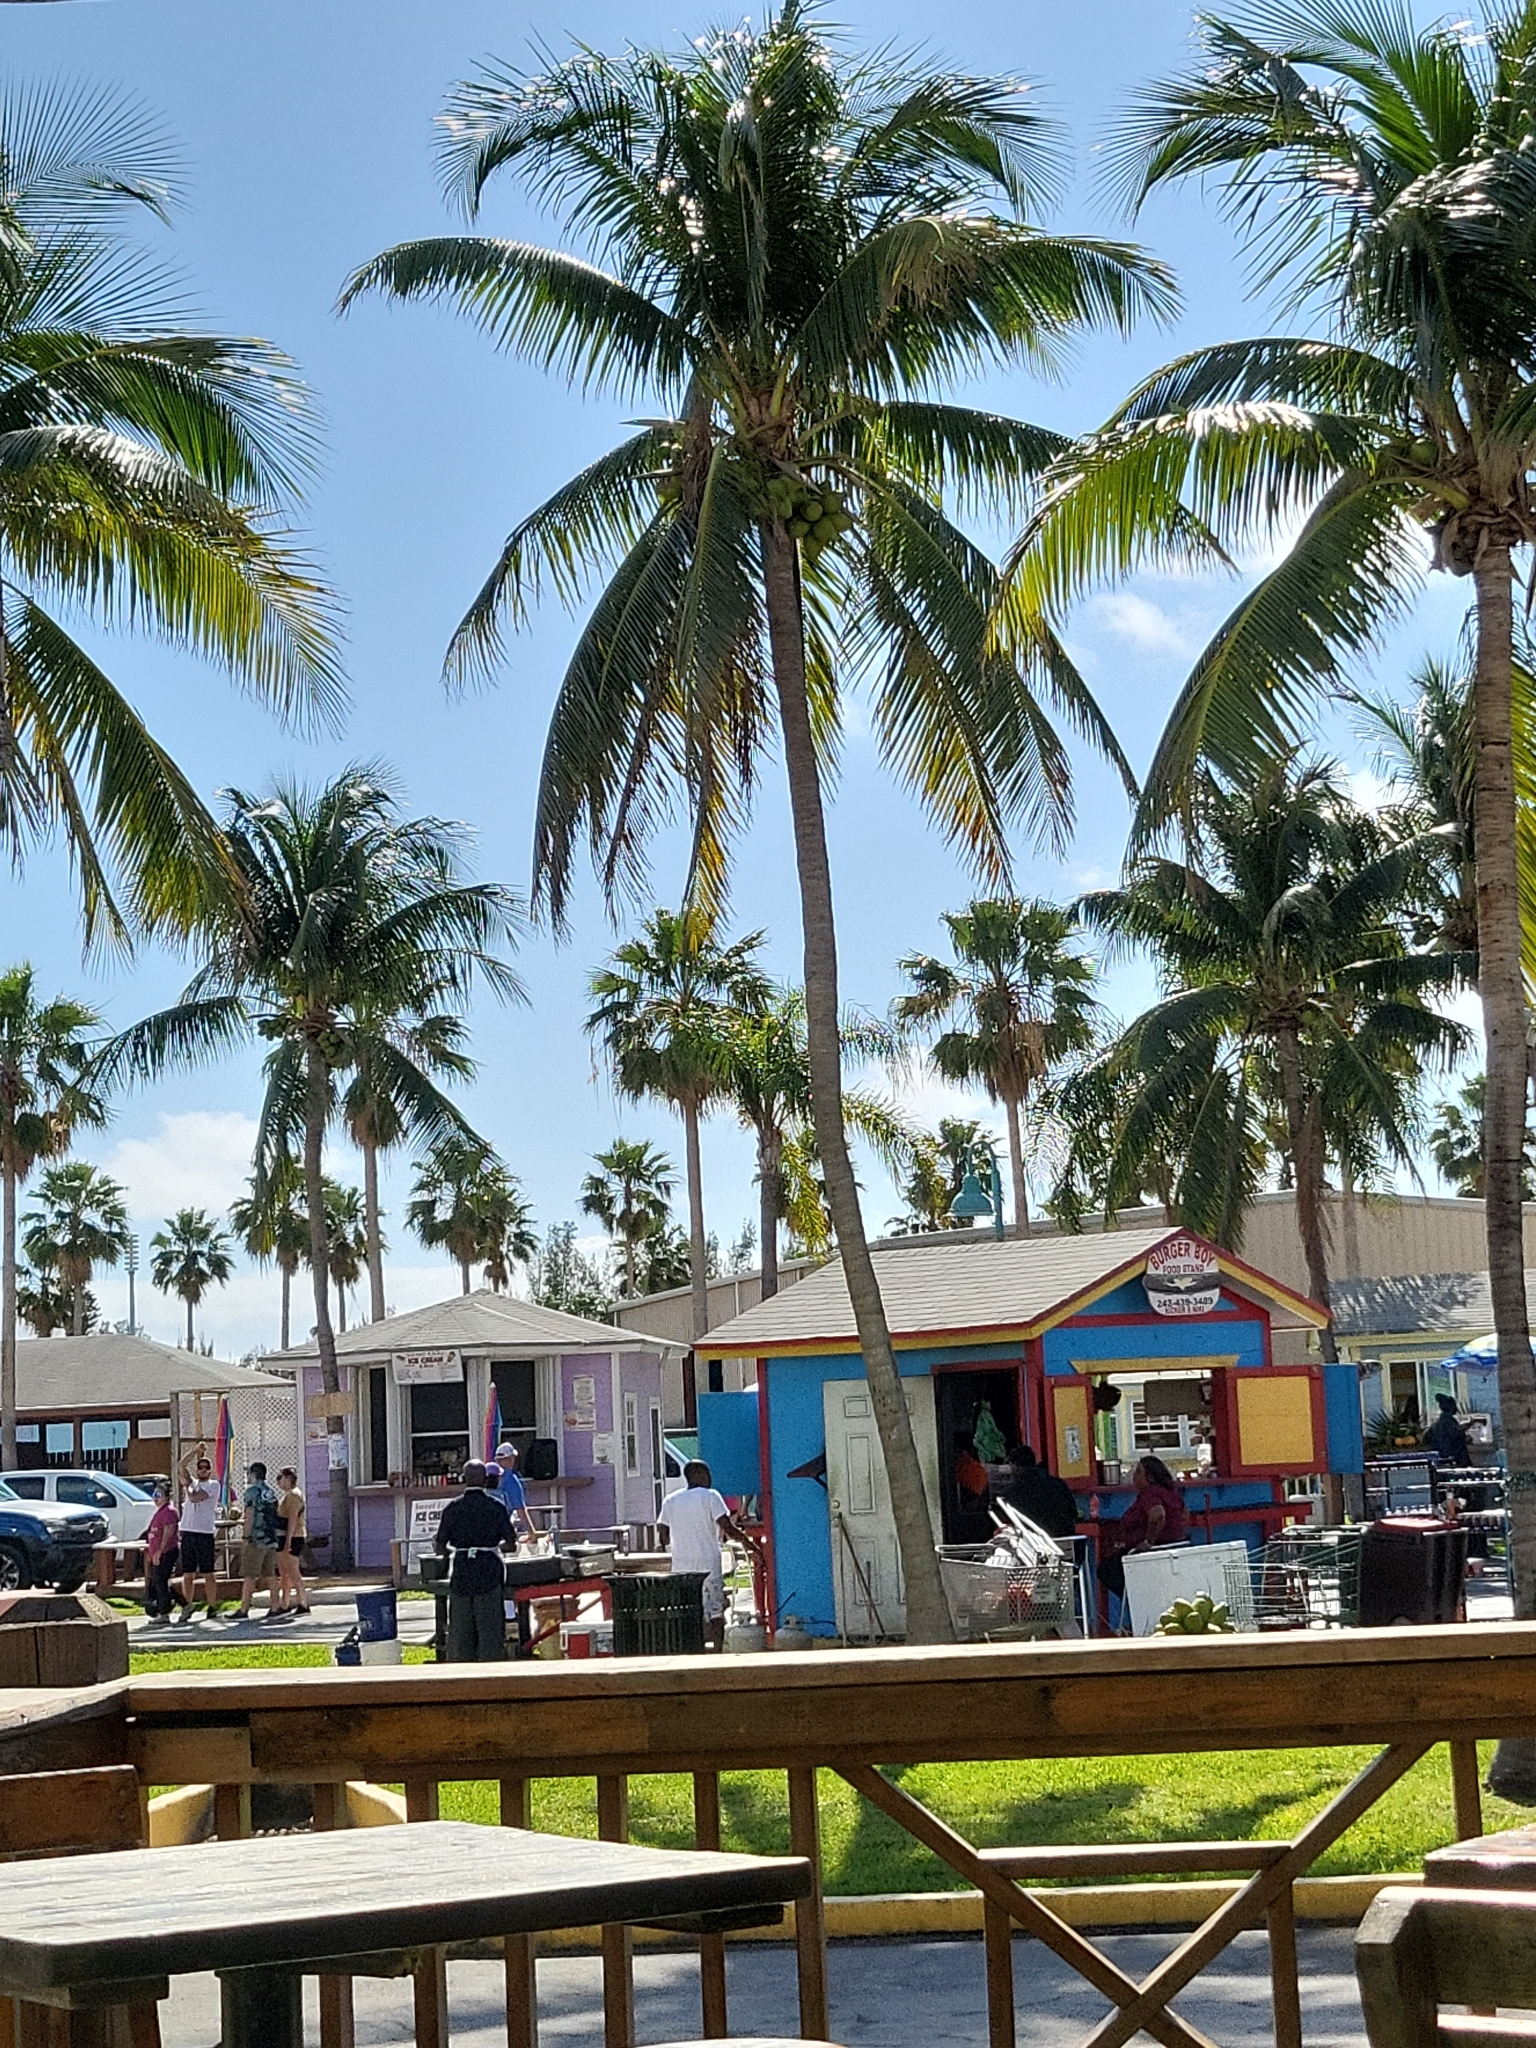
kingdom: Plantae
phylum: Tracheophyta
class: Liliopsida
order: Arecales
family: Arecaceae
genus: Cocos
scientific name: Cocos nucifera
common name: Coconut palm
